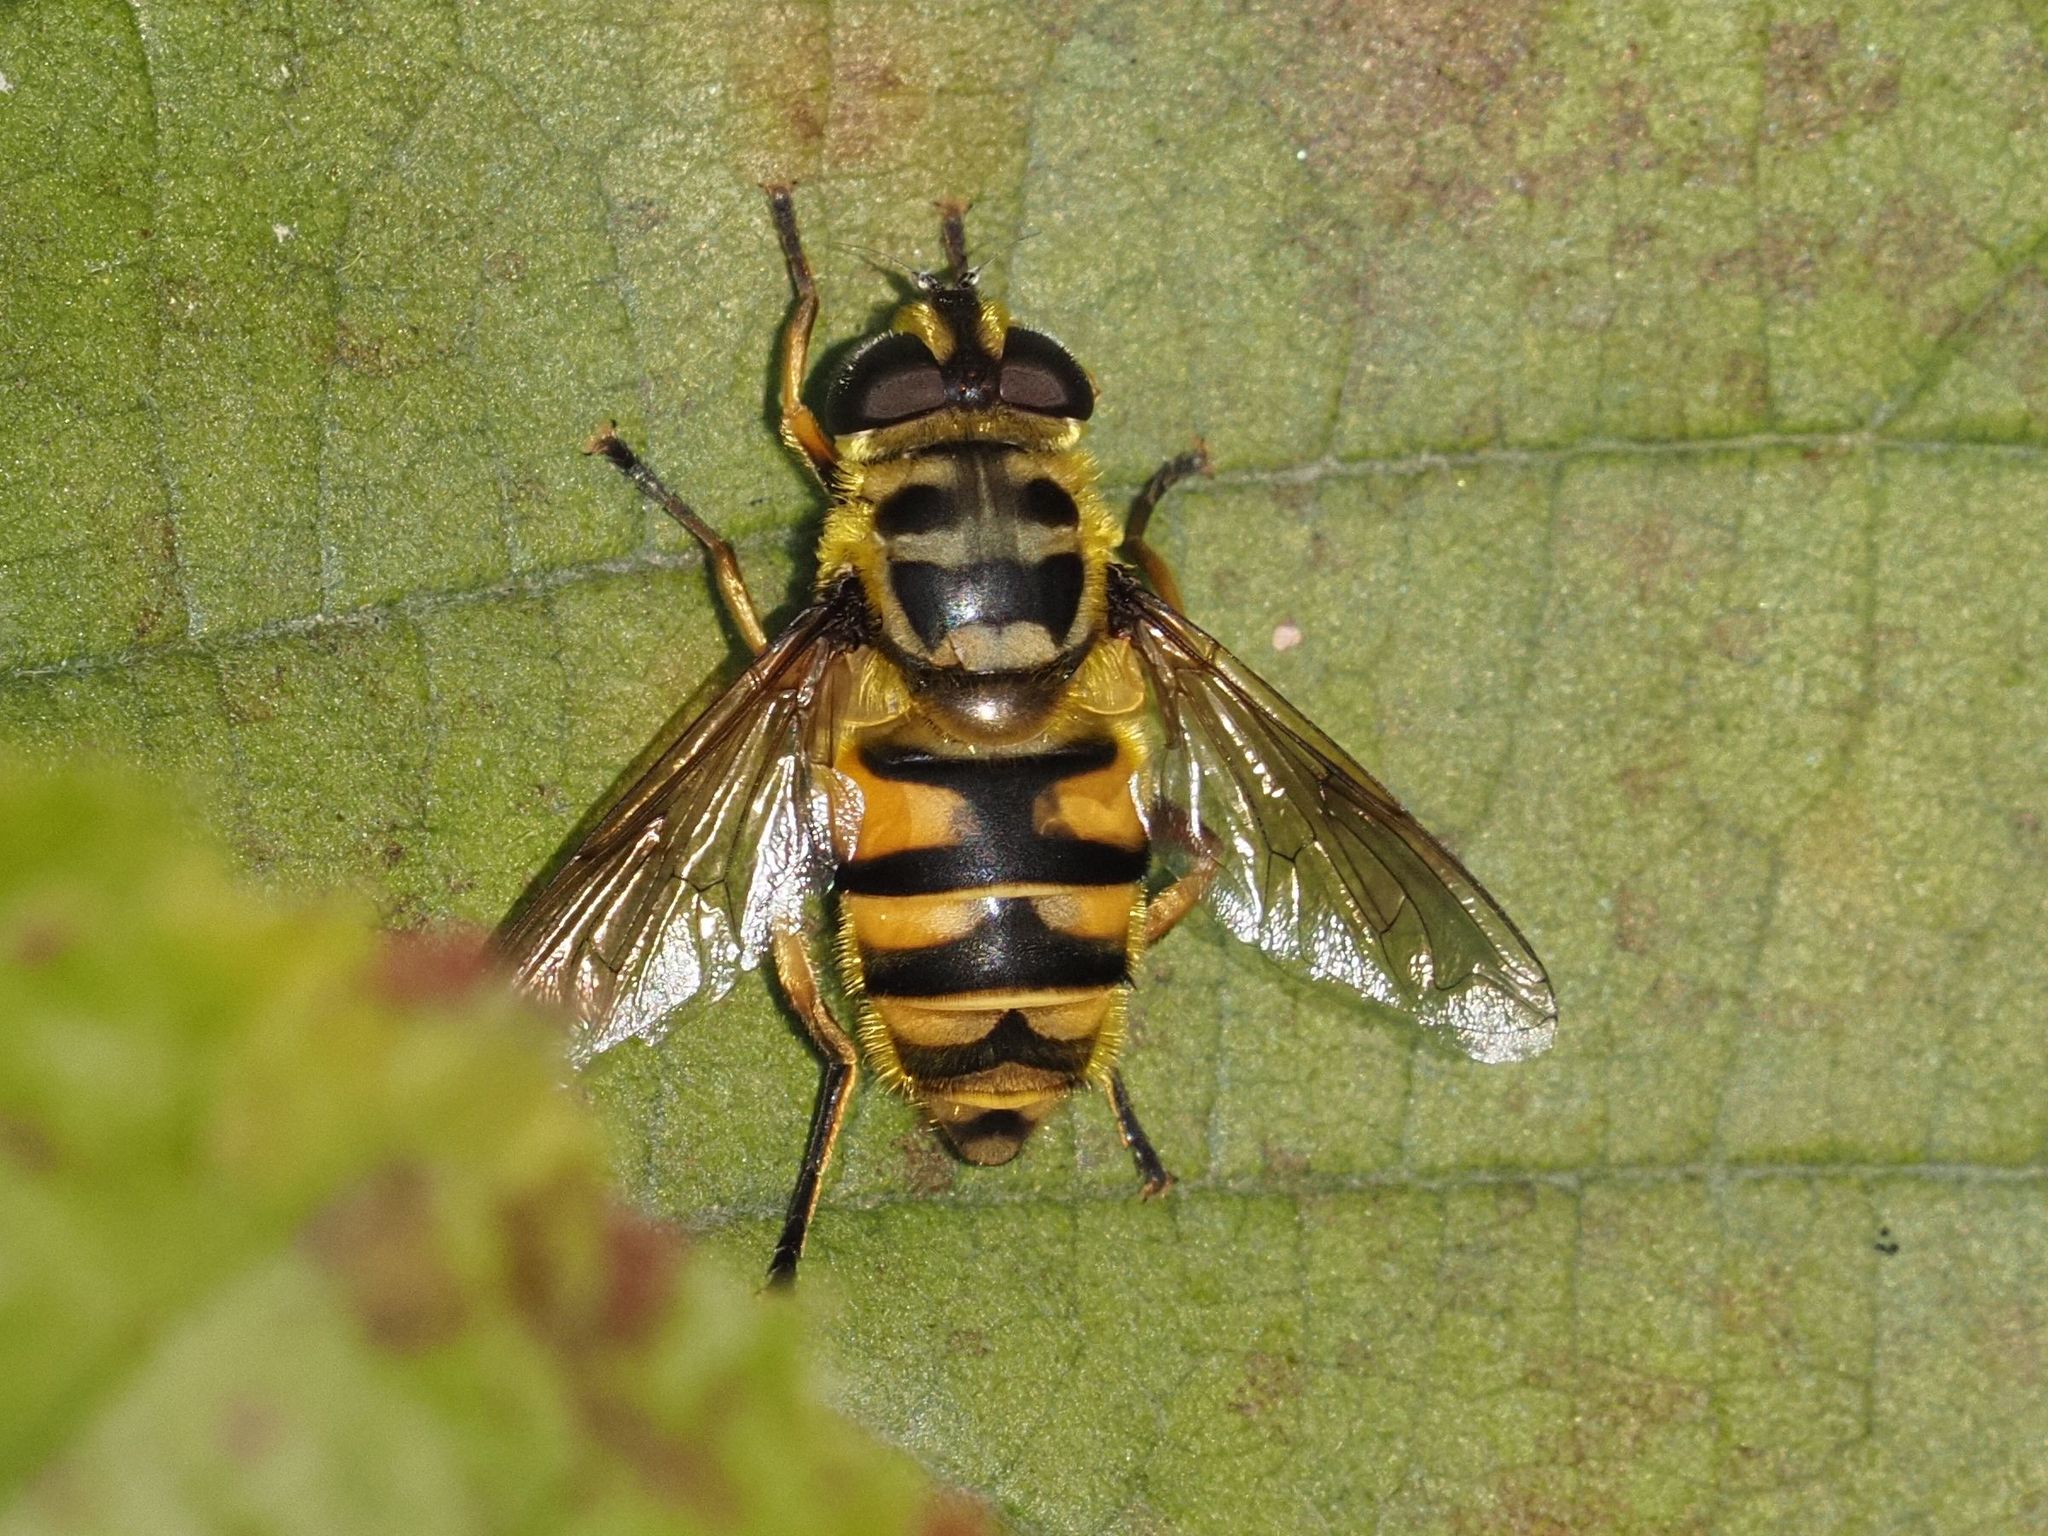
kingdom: Animalia
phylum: Arthropoda
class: Insecta
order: Diptera
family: Syrphidae
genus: Myathropa
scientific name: Myathropa florea
